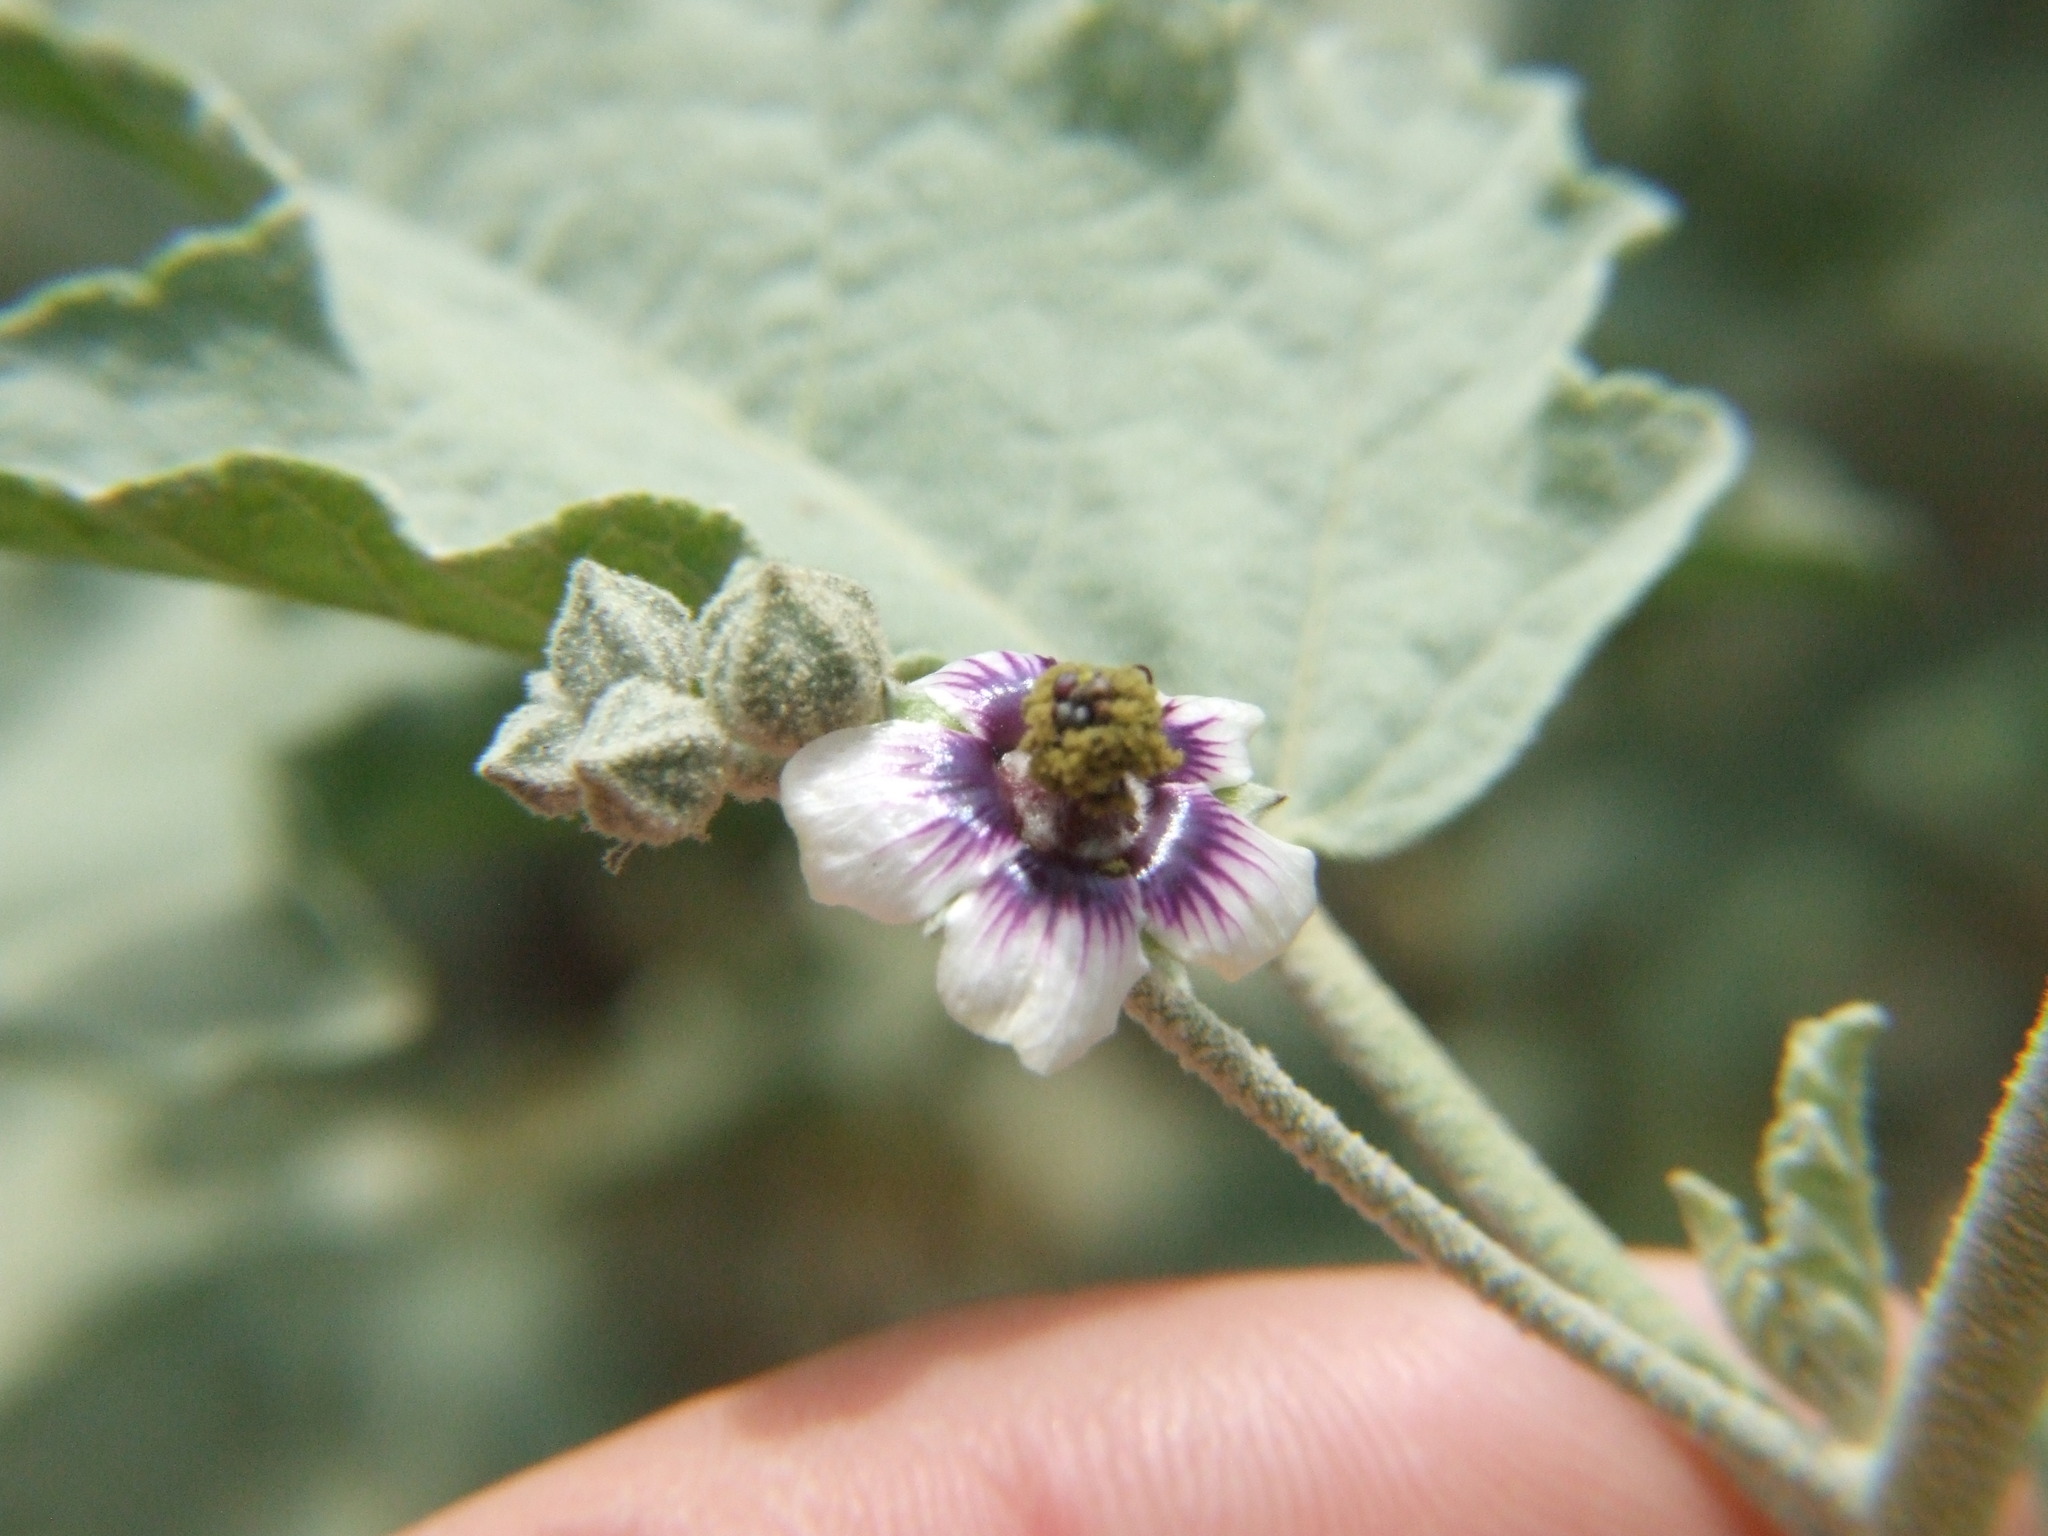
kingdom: Plantae
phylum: Tracheophyta
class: Magnoliopsida
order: Malvales
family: Malvaceae
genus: Tarasa
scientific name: Tarasa operculata
